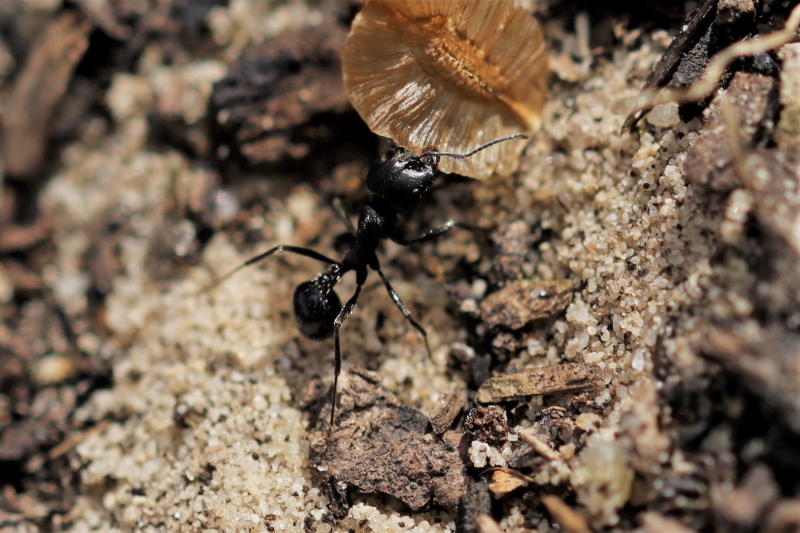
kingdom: Animalia
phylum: Arthropoda
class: Insecta
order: Hymenoptera
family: Formicidae
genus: Messor
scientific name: Messor capensis
